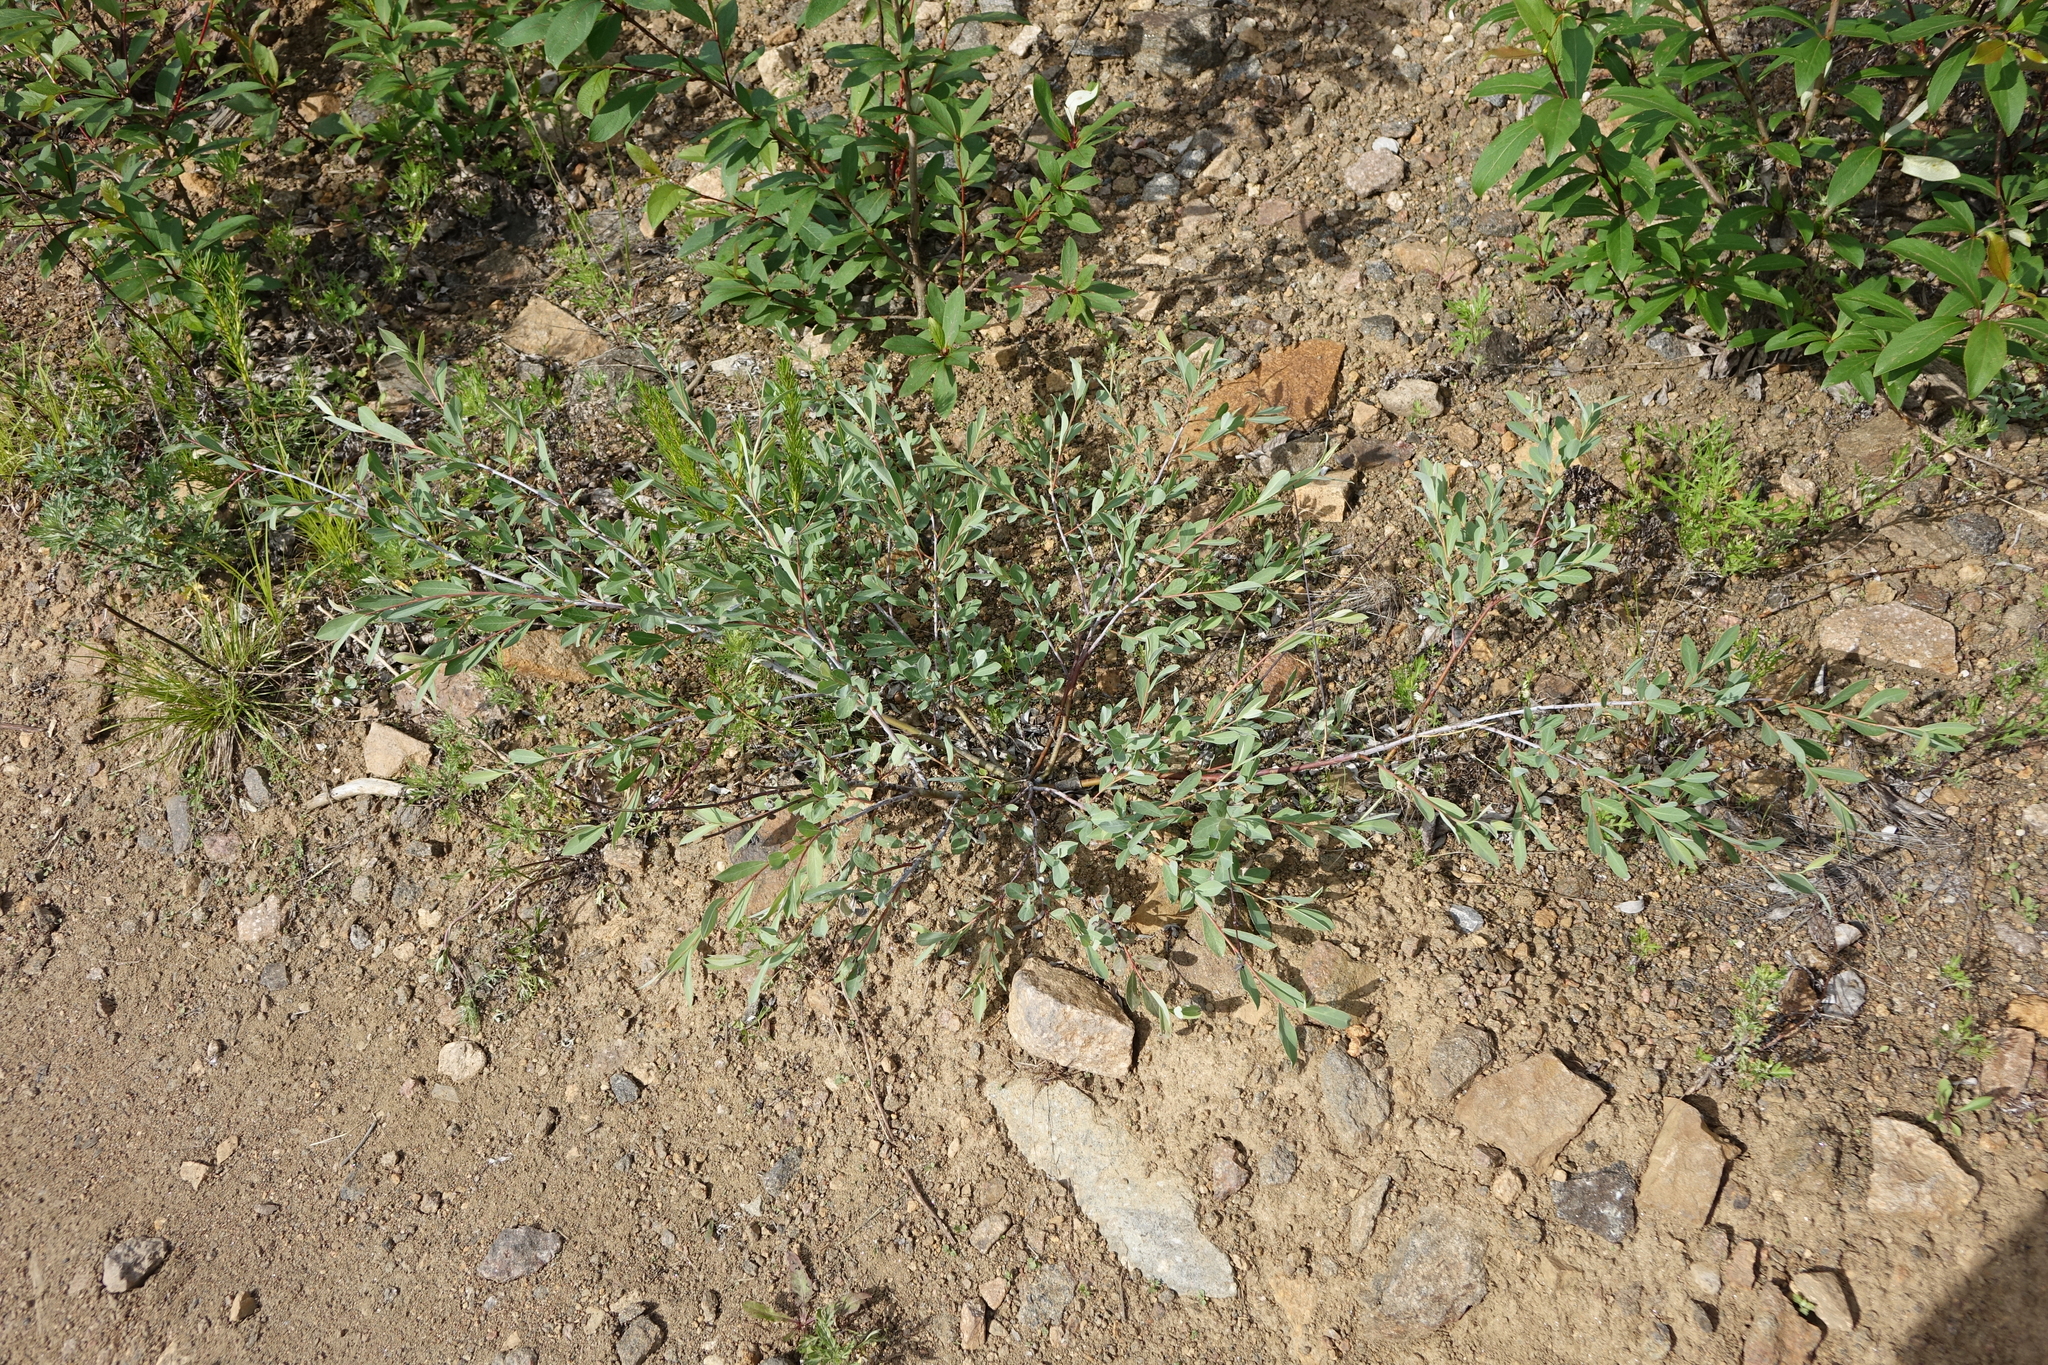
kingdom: Plantae
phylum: Tracheophyta
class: Magnoliopsida
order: Malpighiales
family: Salicaceae
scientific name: Salicaceae
